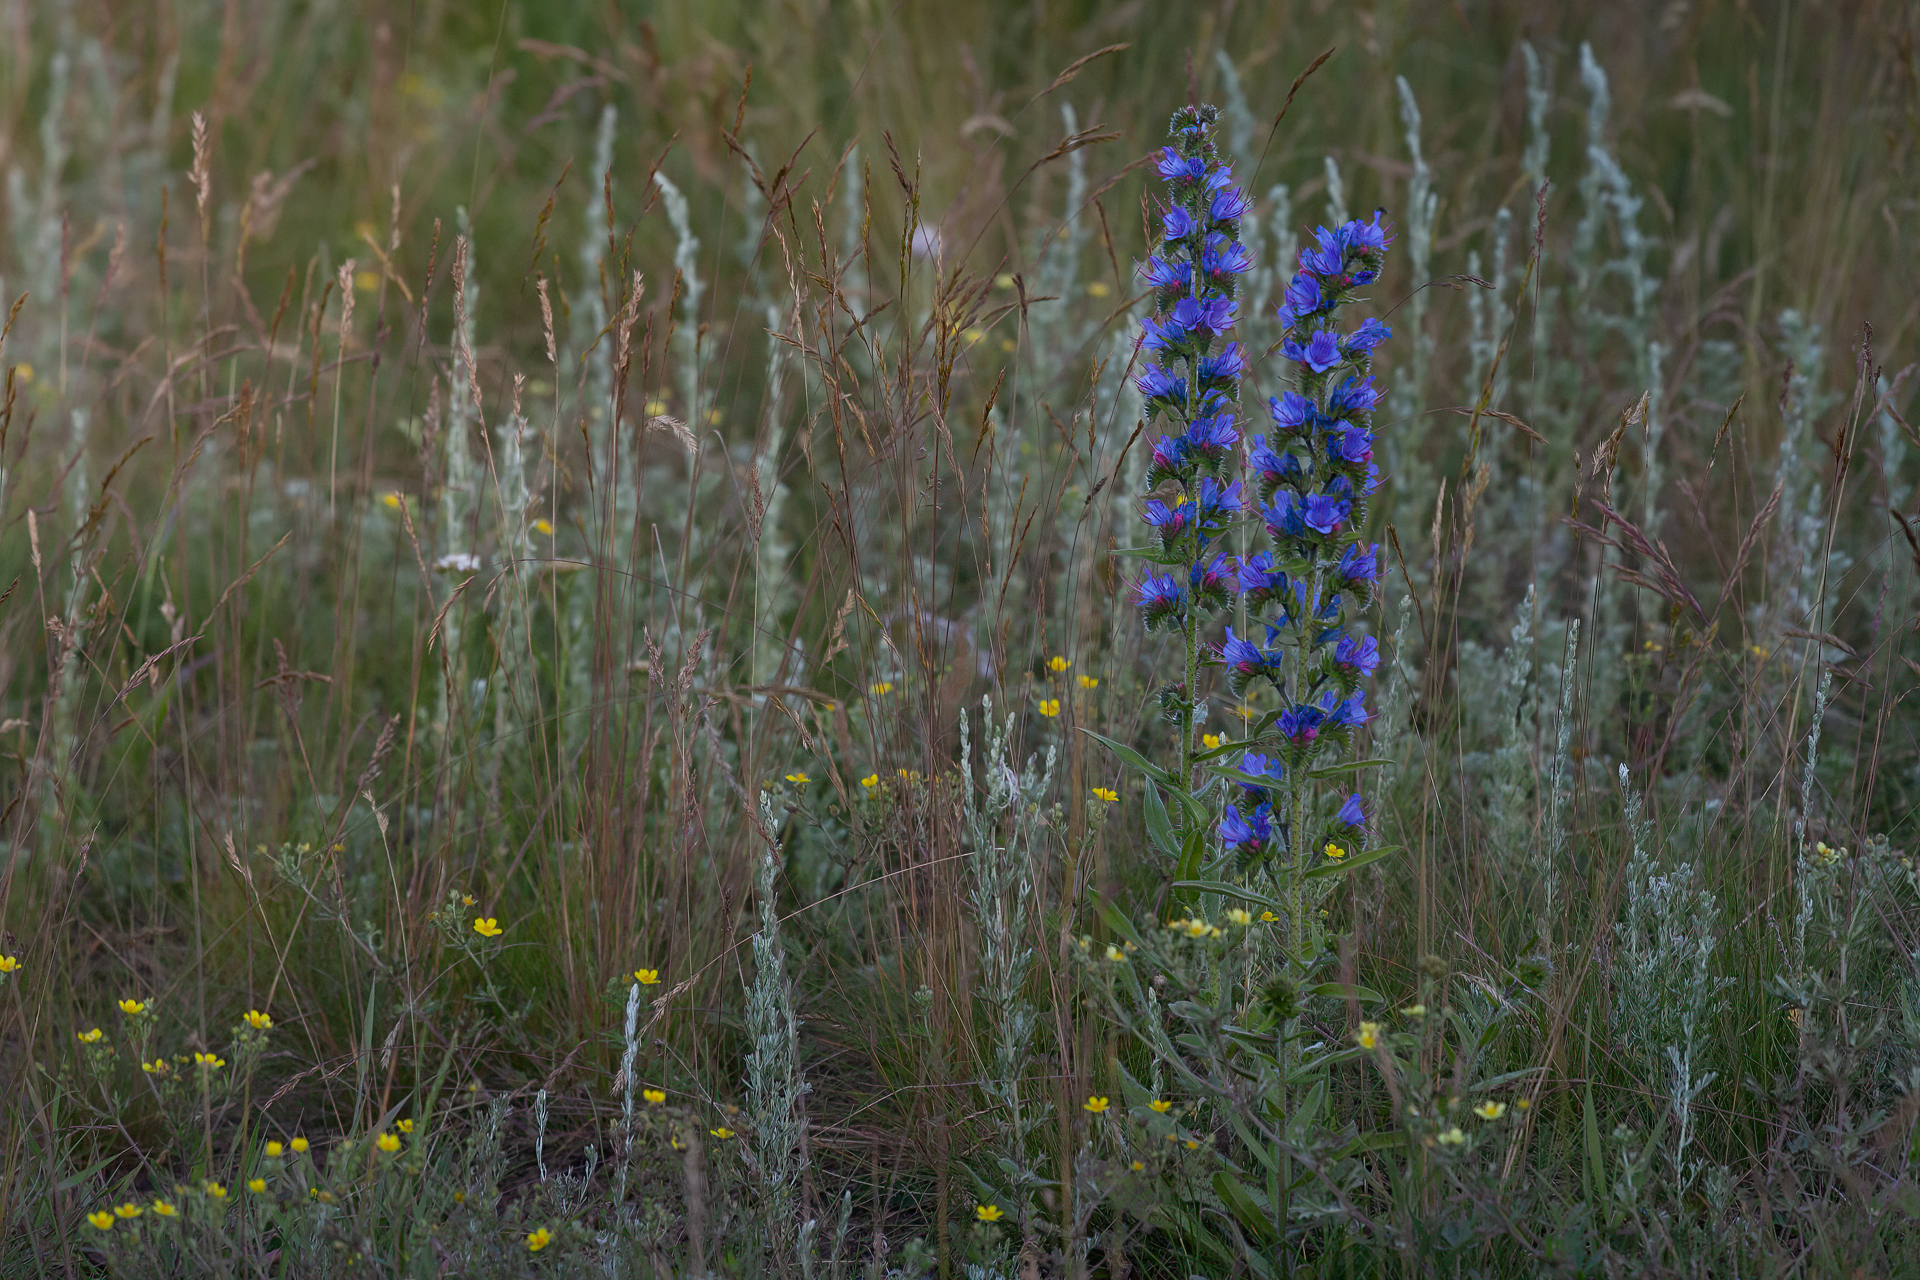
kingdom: Plantae
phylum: Tracheophyta
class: Magnoliopsida
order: Boraginales
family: Boraginaceae
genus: Echium
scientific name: Echium vulgare
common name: Common viper's bugloss
